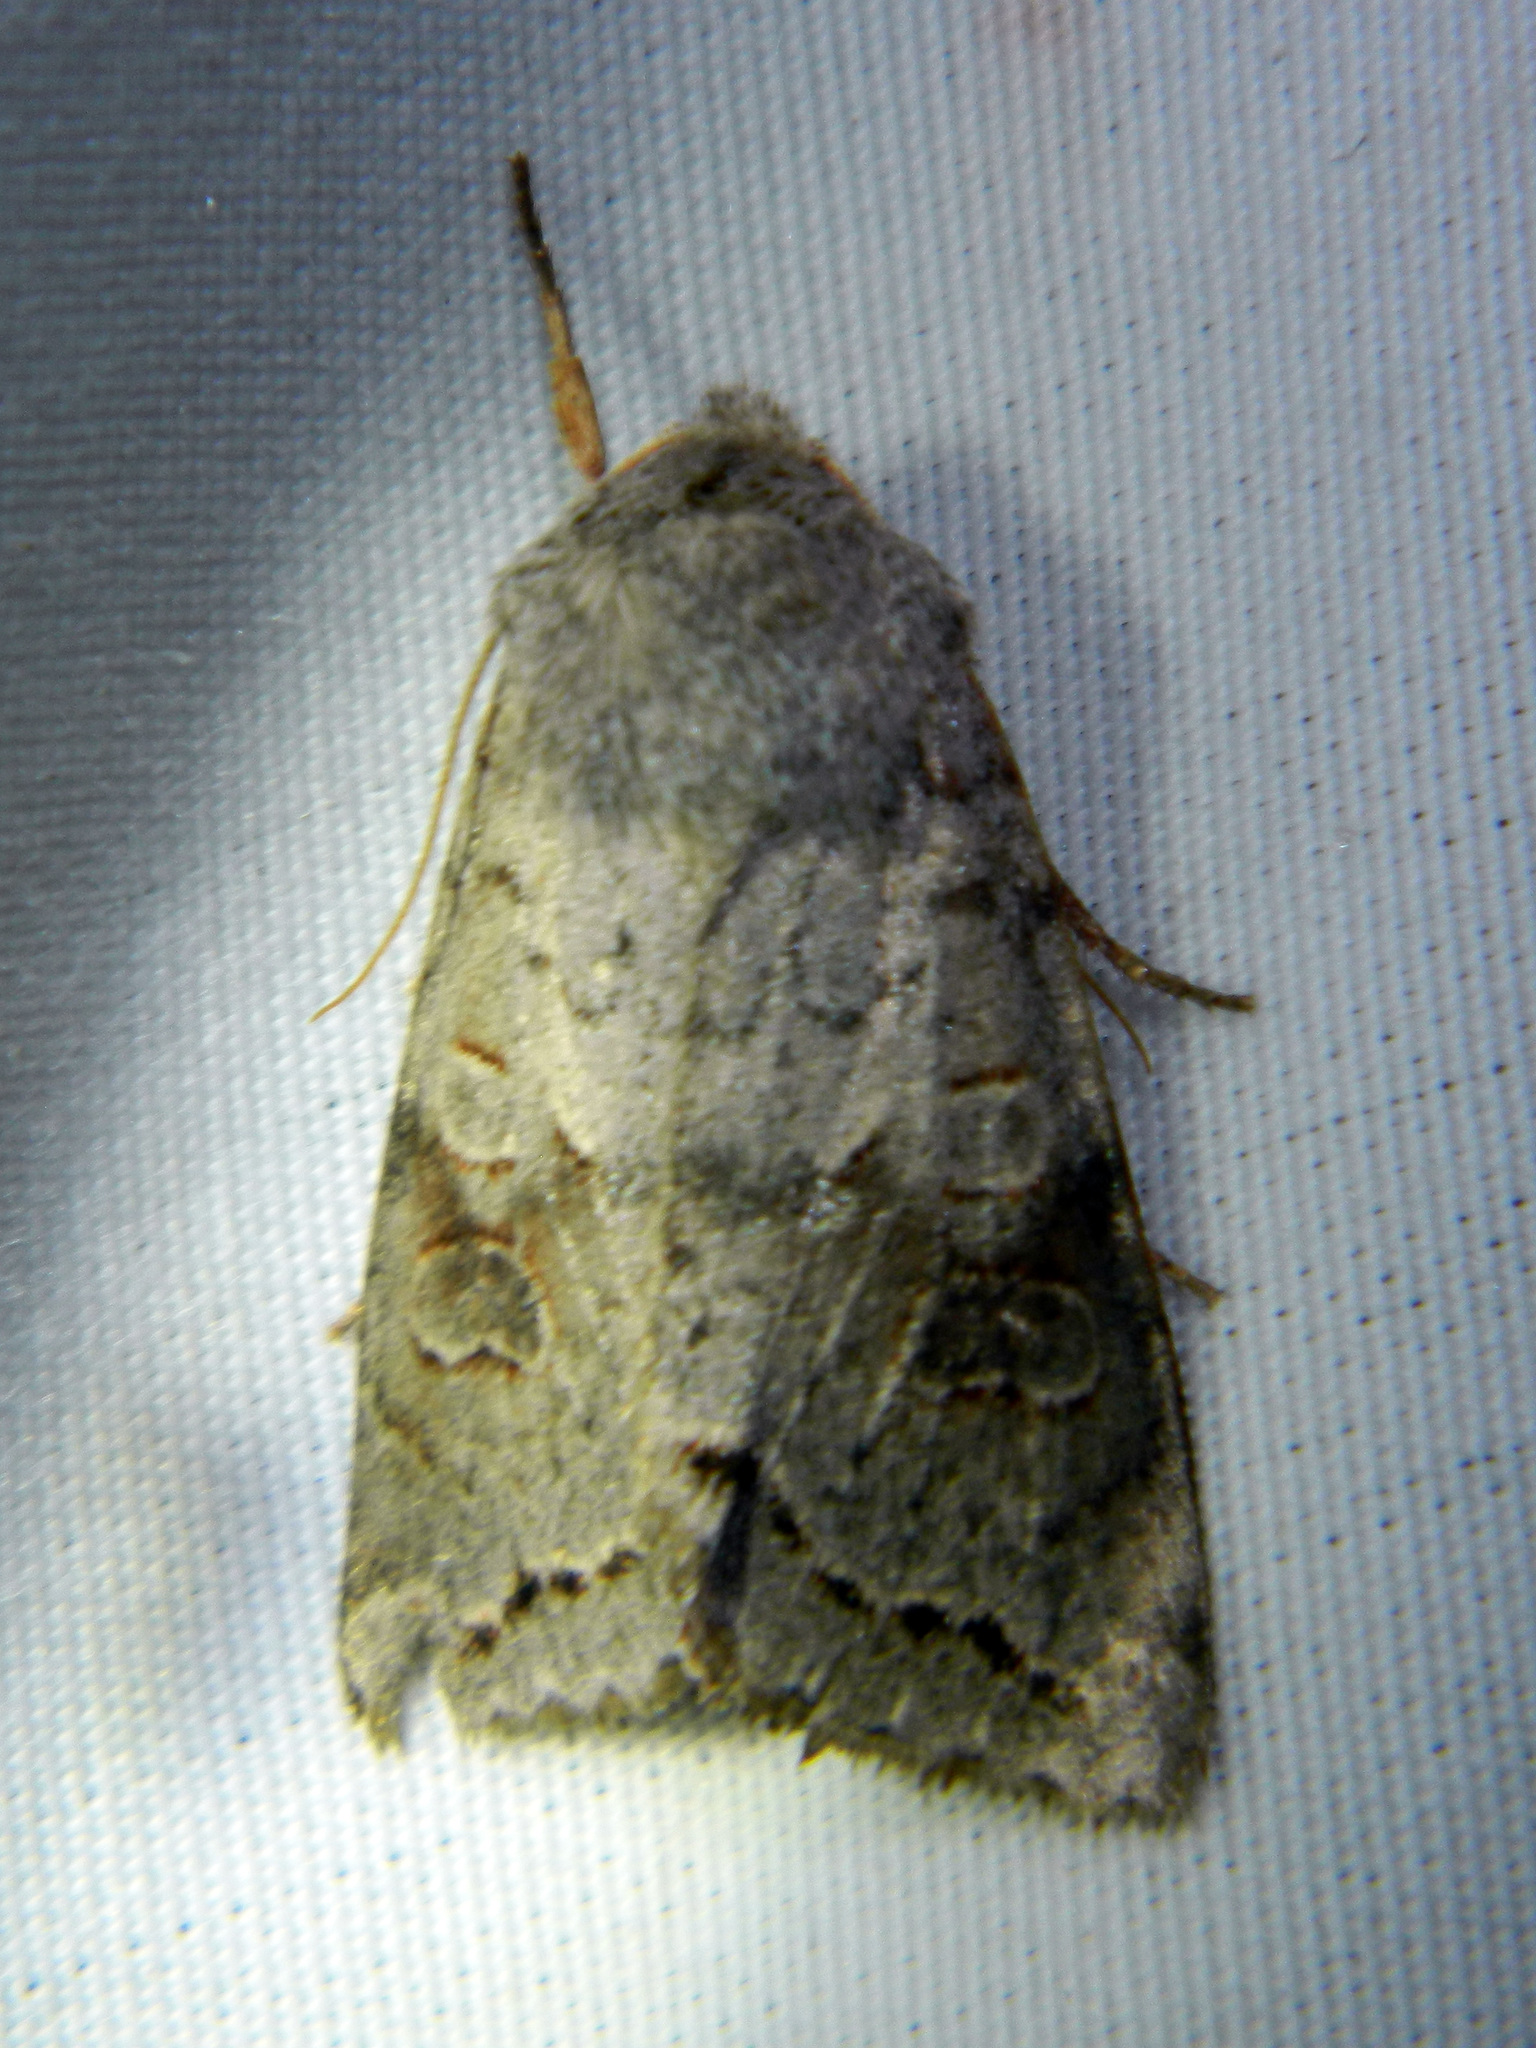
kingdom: Animalia
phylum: Arthropoda
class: Insecta
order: Lepidoptera
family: Noctuidae
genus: Orthosia
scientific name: Orthosia revicta
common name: Rusty whitesided caterpillar
